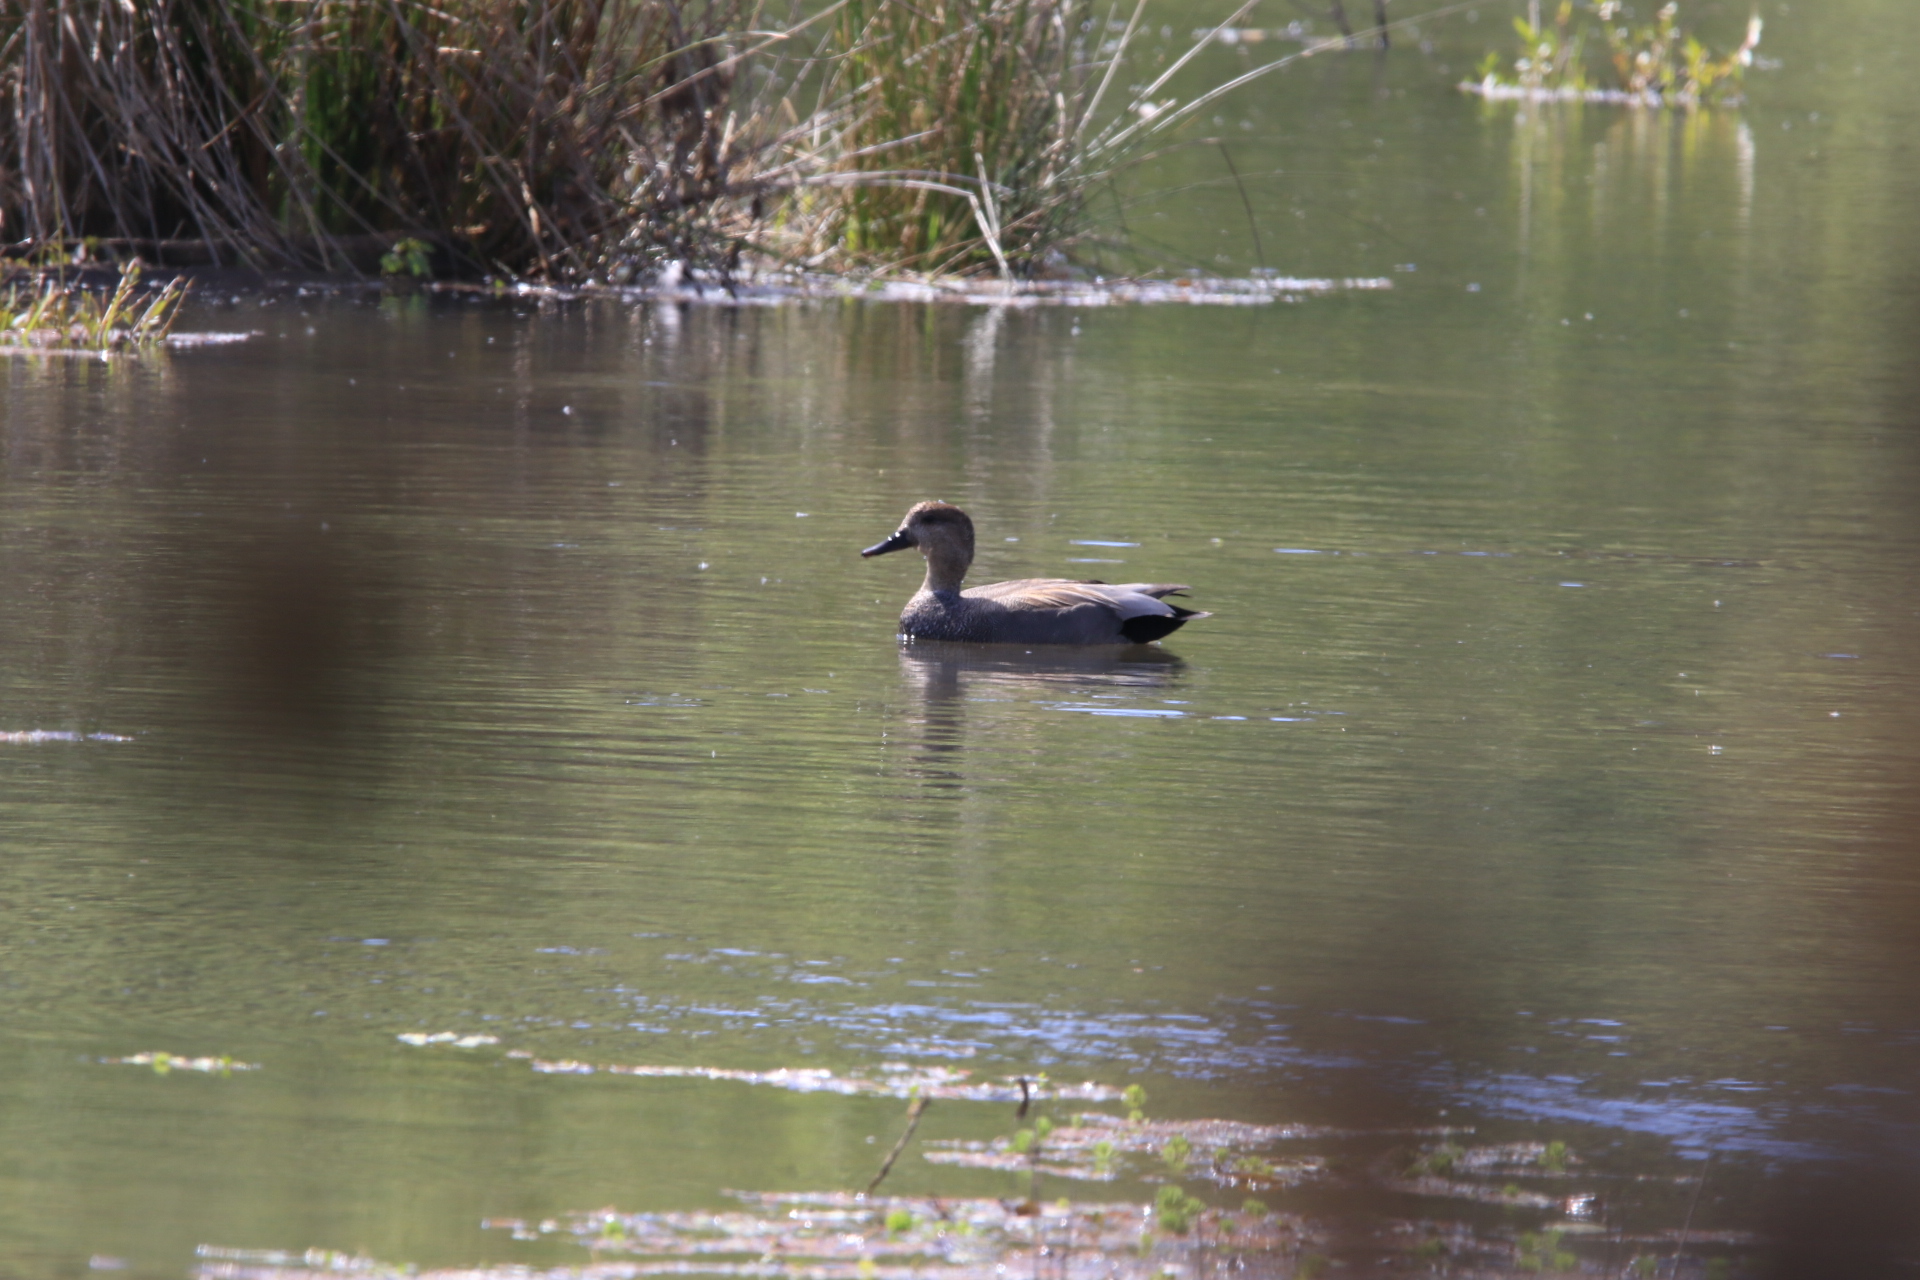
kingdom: Animalia
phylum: Chordata
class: Aves
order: Anseriformes
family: Anatidae
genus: Mareca
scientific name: Mareca strepera
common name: Gadwall
